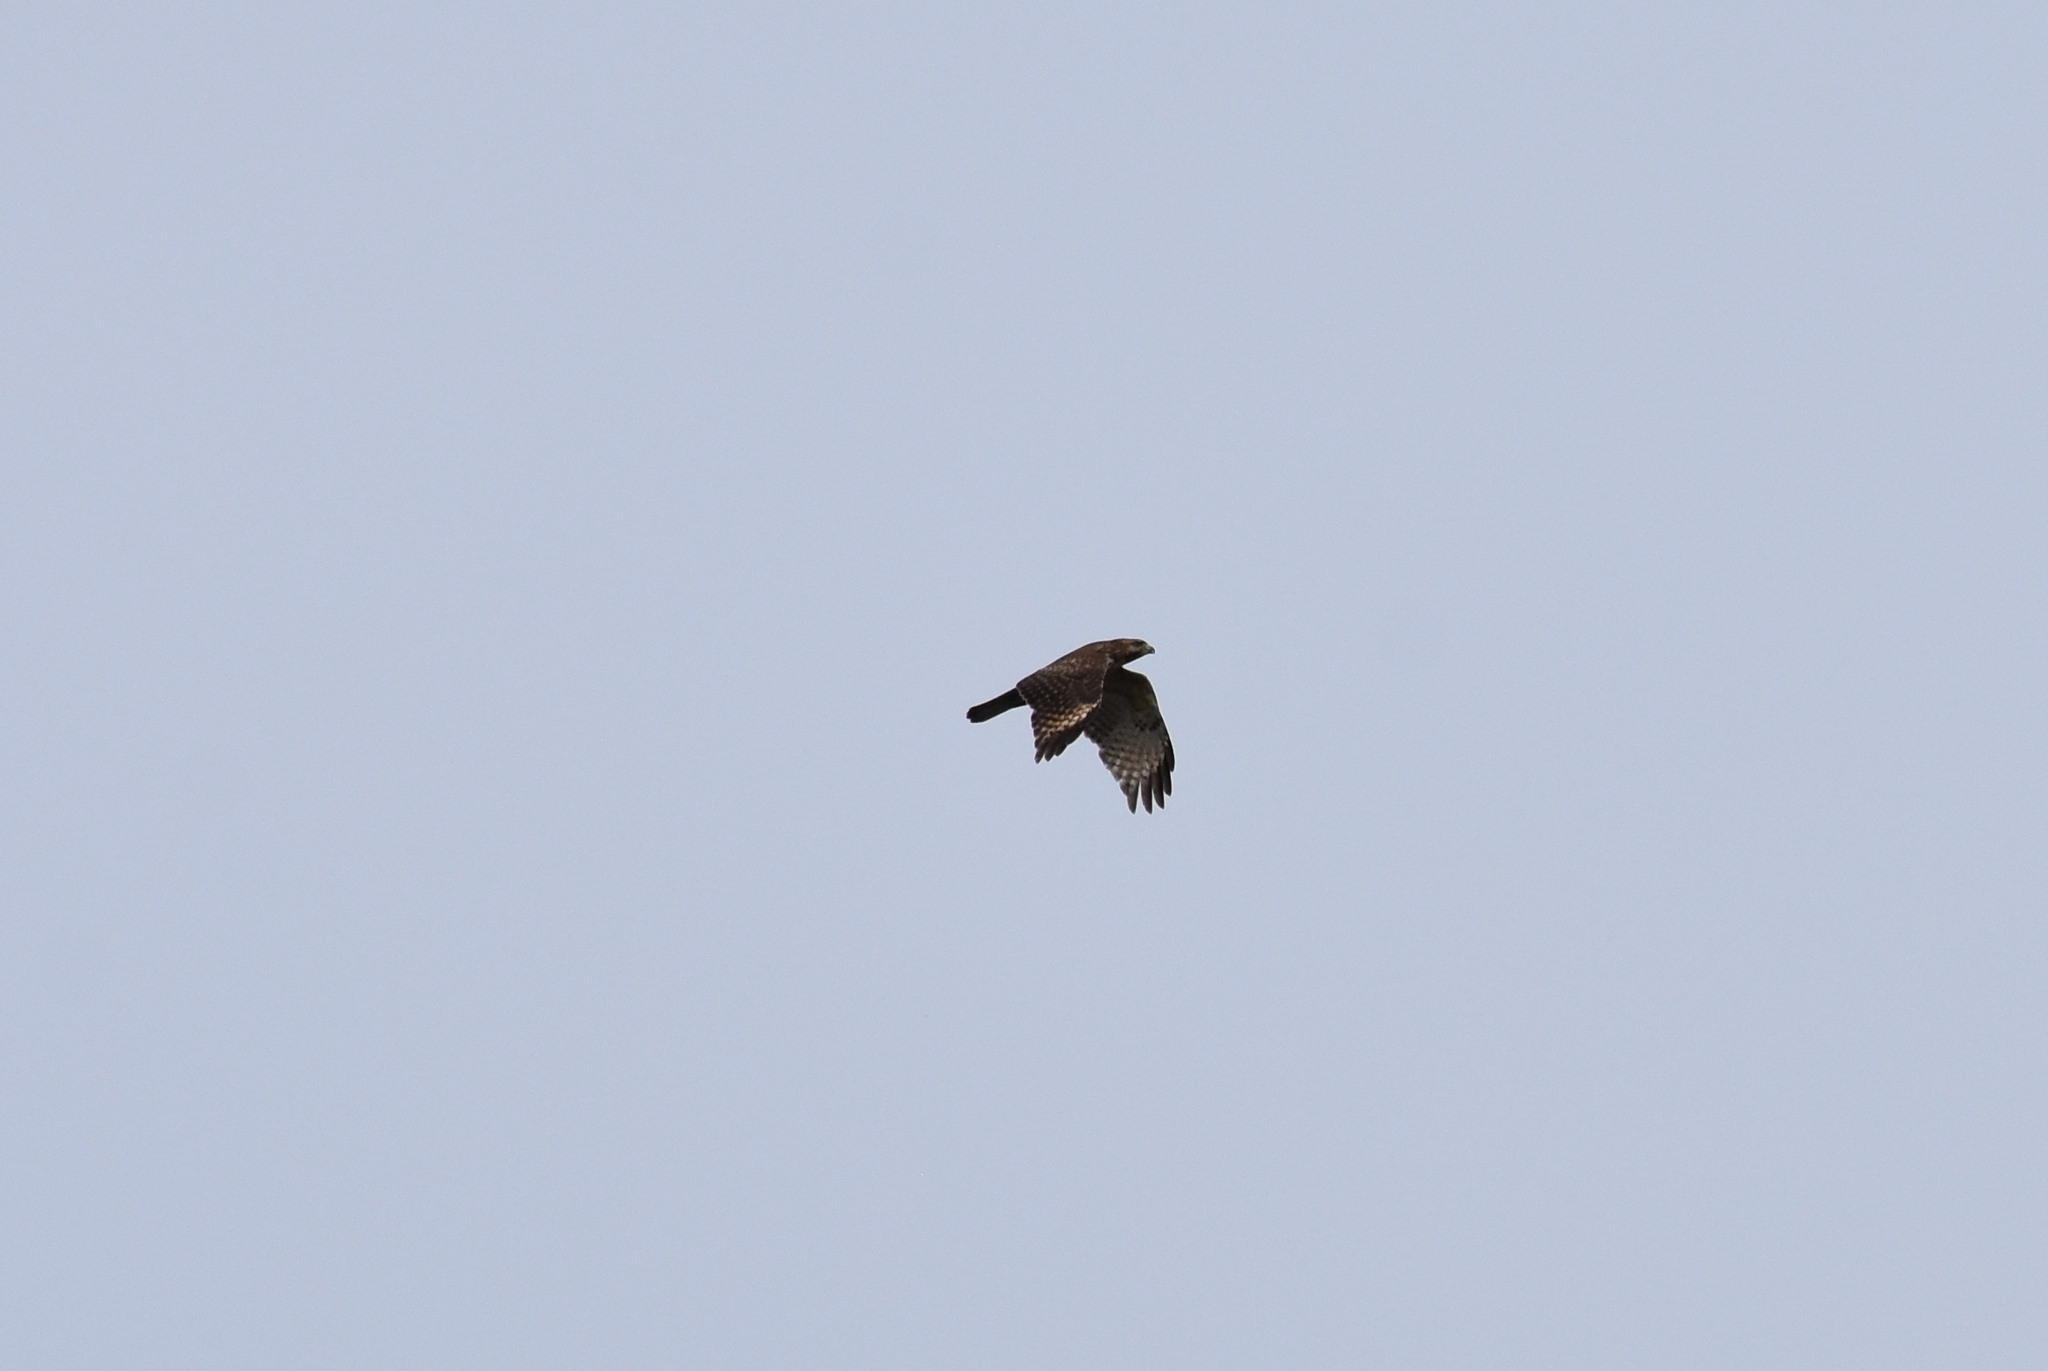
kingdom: Animalia
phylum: Chordata
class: Aves
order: Accipitriformes
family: Accipitridae
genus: Buteo
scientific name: Buteo lineatus
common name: Red-shouldered hawk
